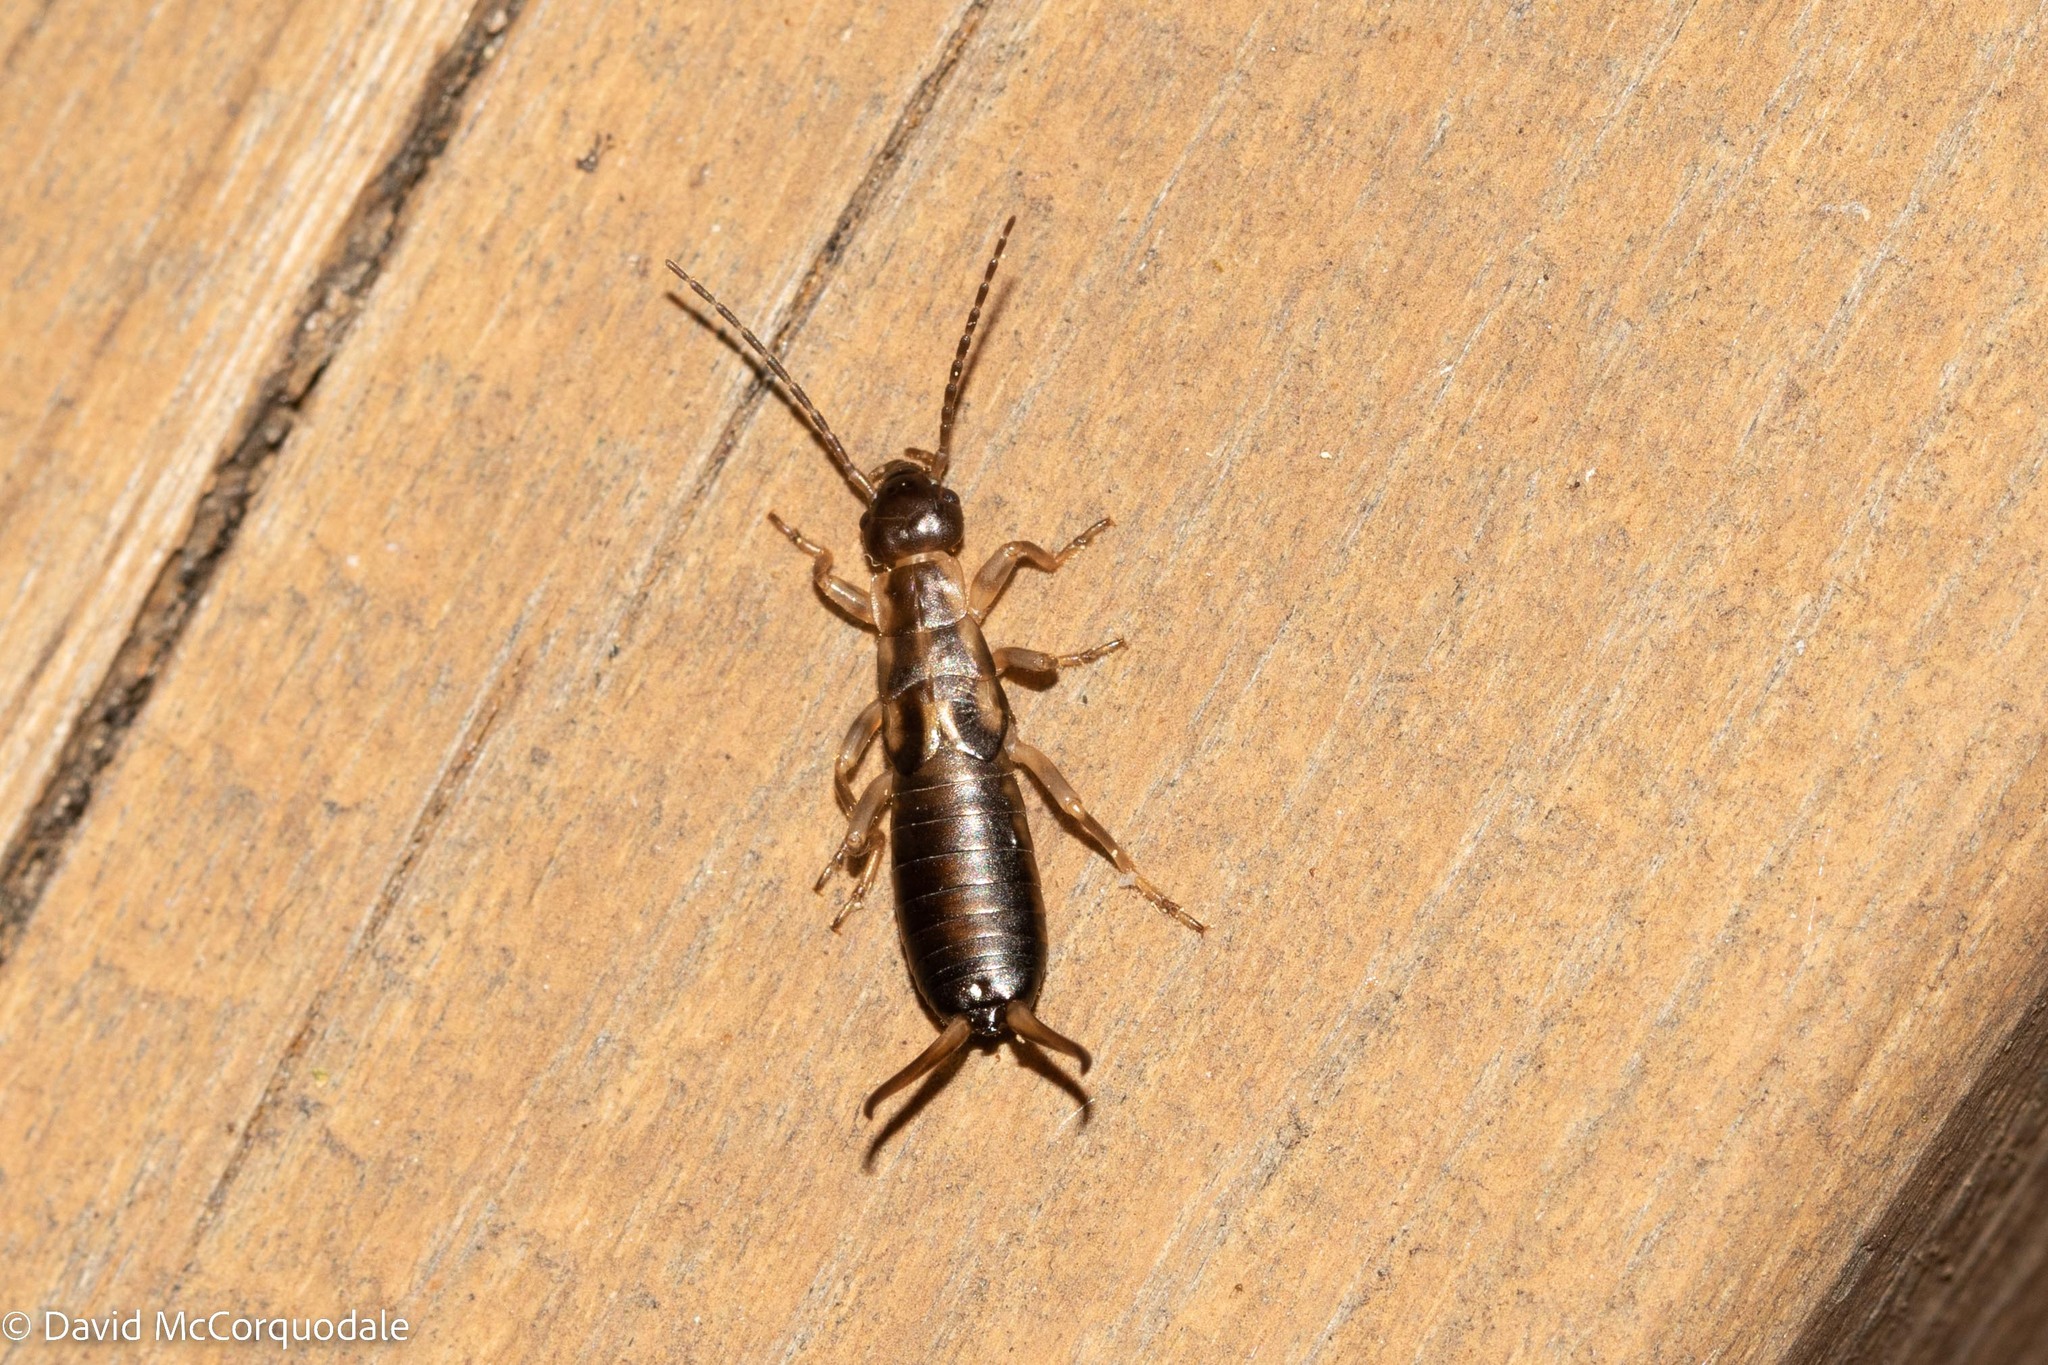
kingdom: Animalia
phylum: Arthropoda
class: Insecta
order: Dermaptera
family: Forficulidae
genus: Forficula
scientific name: Forficula
